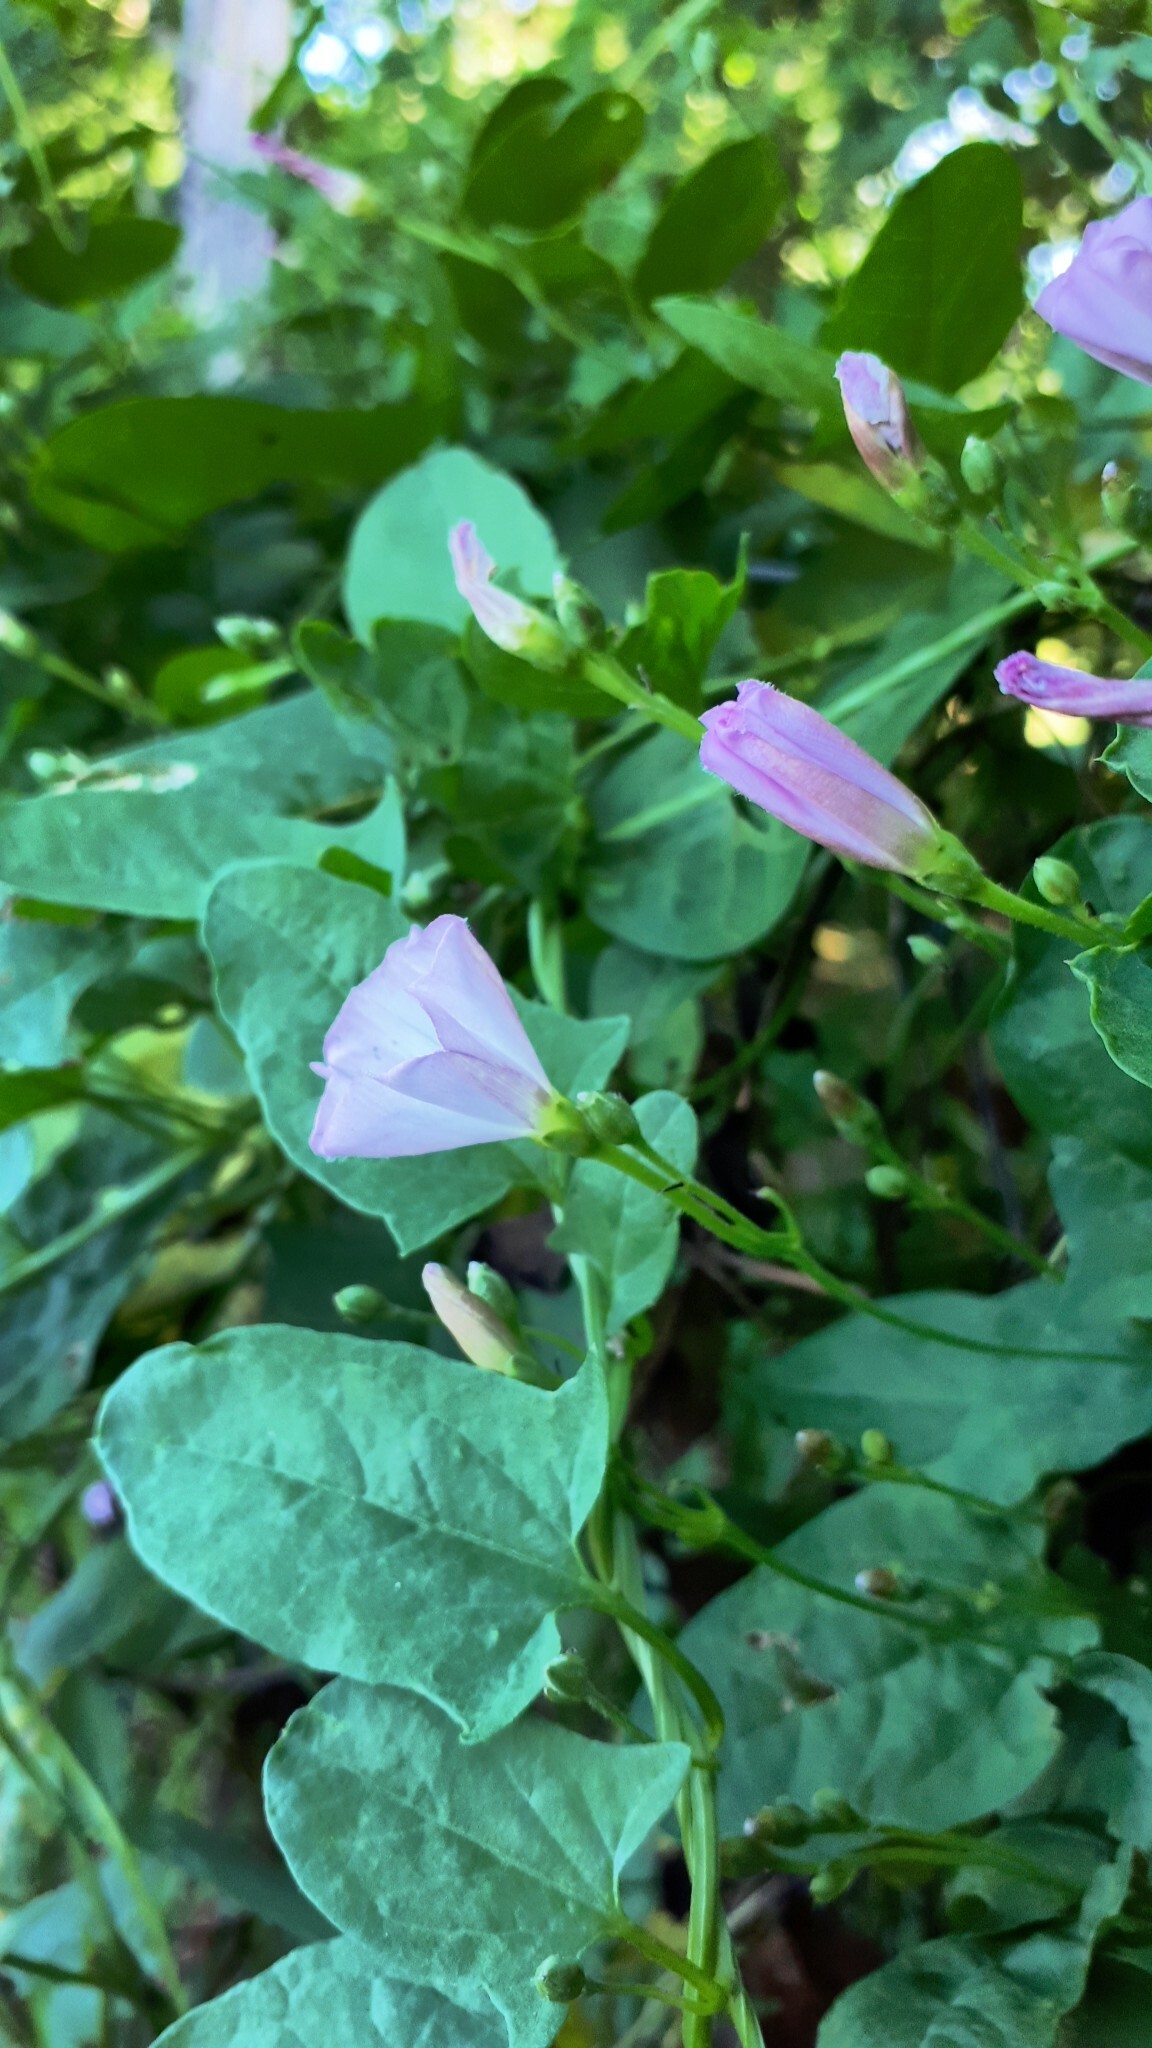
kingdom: Plantae
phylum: Tracheophyta
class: Magnoliopsida
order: Solanales
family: Convolvulaceae
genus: Convolvulus
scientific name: Convolvulus arvensis
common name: Field bindweed
